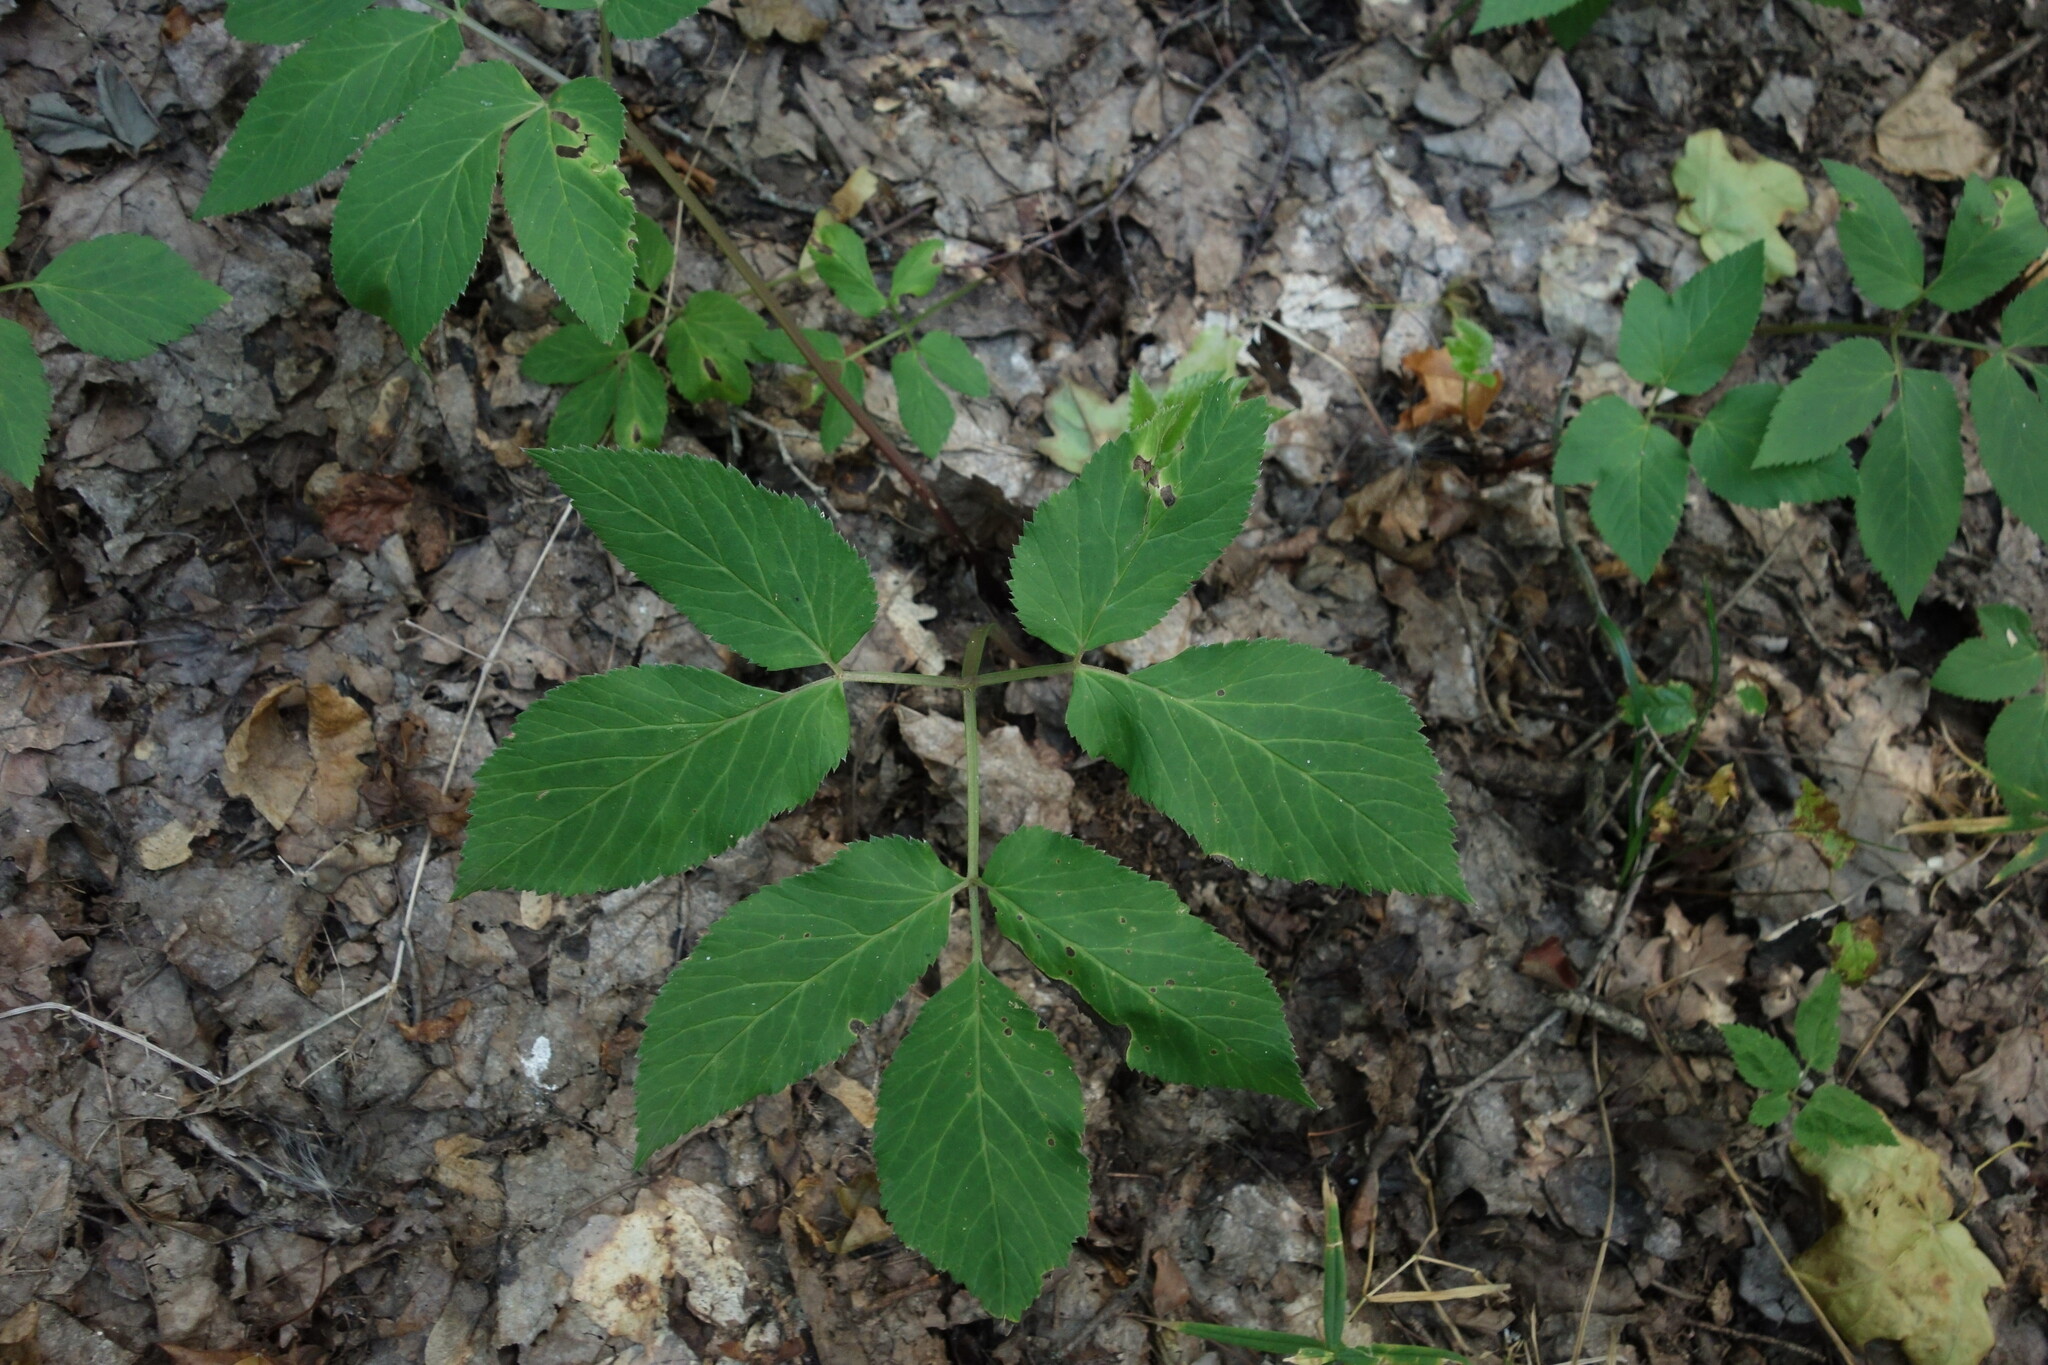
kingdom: Plantae
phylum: Tracheophyta
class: Magnoliopsida
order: Apiales
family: Apiaceae
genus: Aegopodium
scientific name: Aegopodium podagraria
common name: Ground-elder
